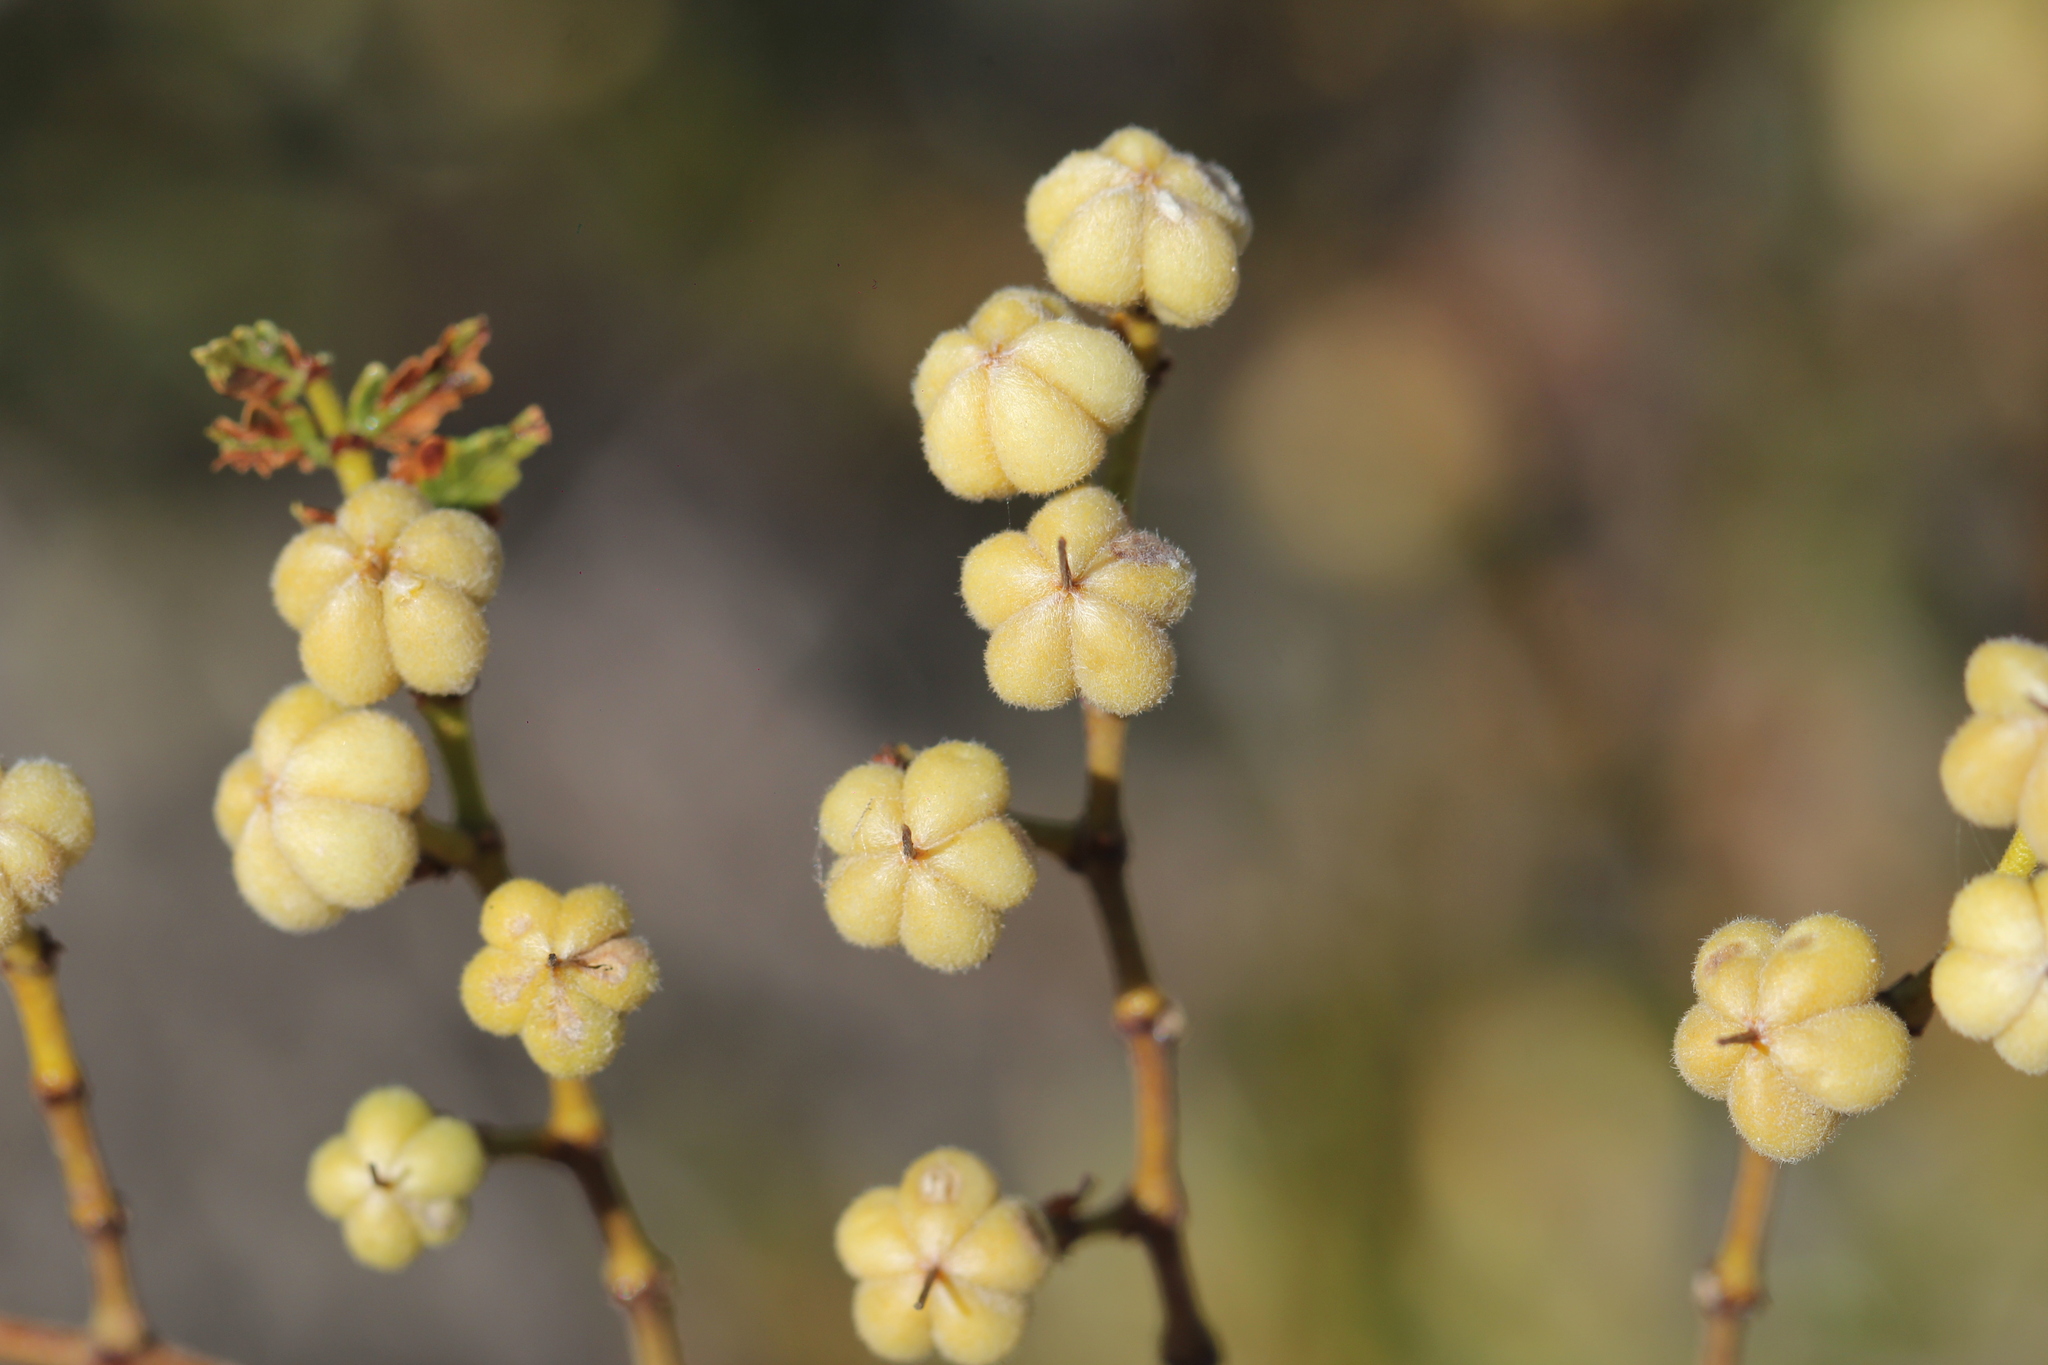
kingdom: Plantae
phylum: Tracheophyta
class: Magnoliopsida
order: Zygophyllales
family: Zygophyllaceae
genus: Larrea
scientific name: Larrea nitida
